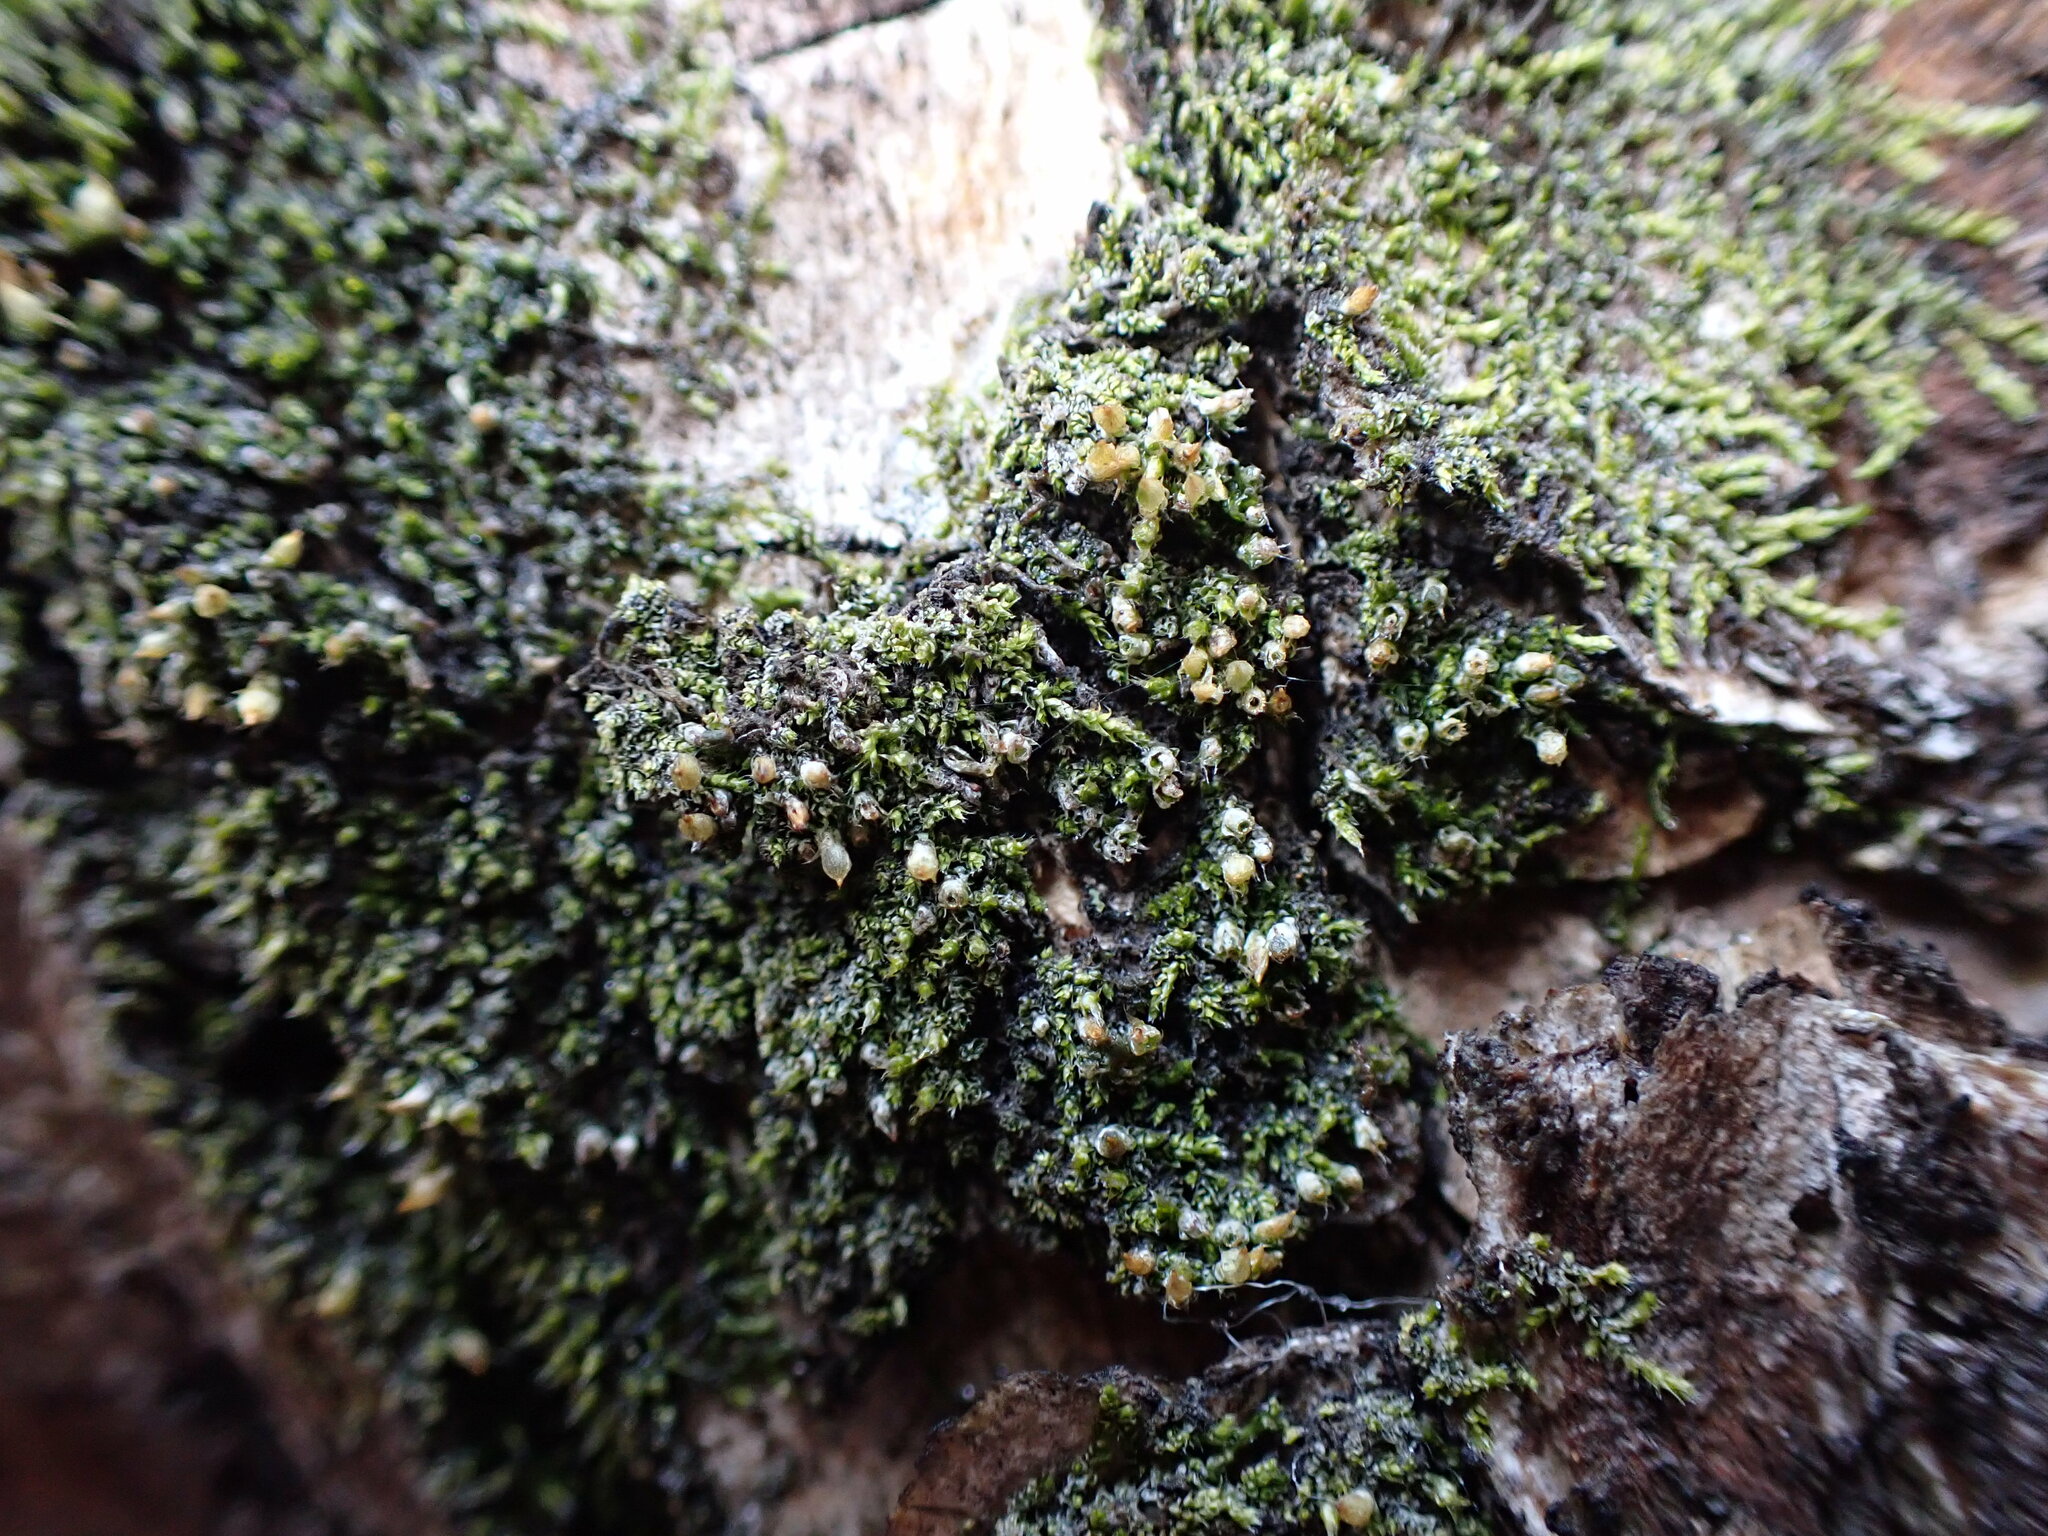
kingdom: Plantae
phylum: Bryophyta
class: Bryopsida
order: Dicranales
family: Erpodiaceae
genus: Venturiella
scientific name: Venturiella sinensis
